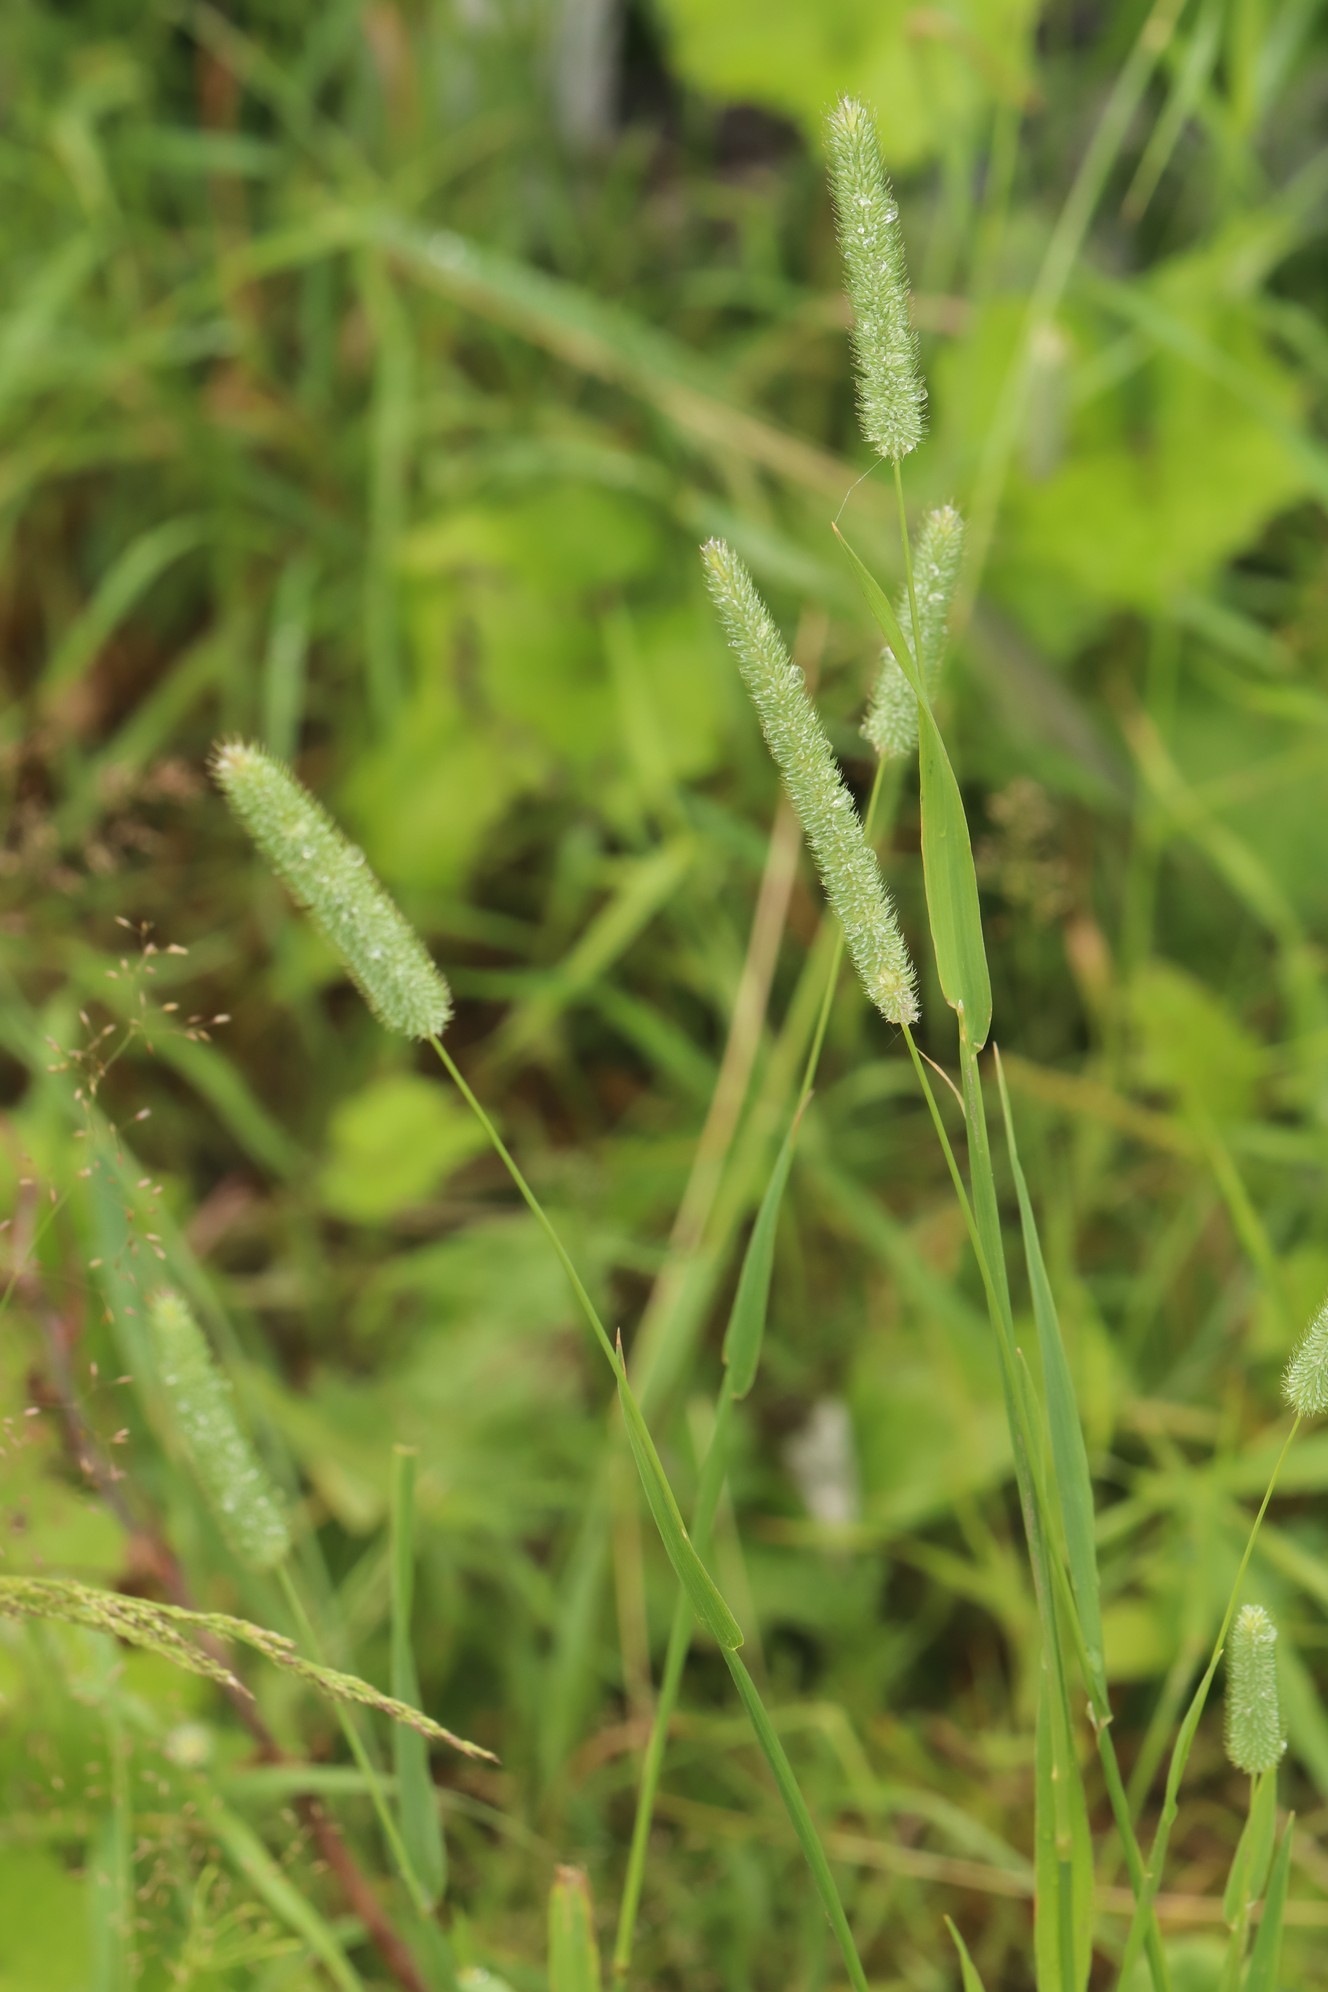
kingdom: Plantae
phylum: Tracheophyta
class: Liliopsida
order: Poales
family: Poaceae
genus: Phleum
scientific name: Phleum pratense
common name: Timothy grass
